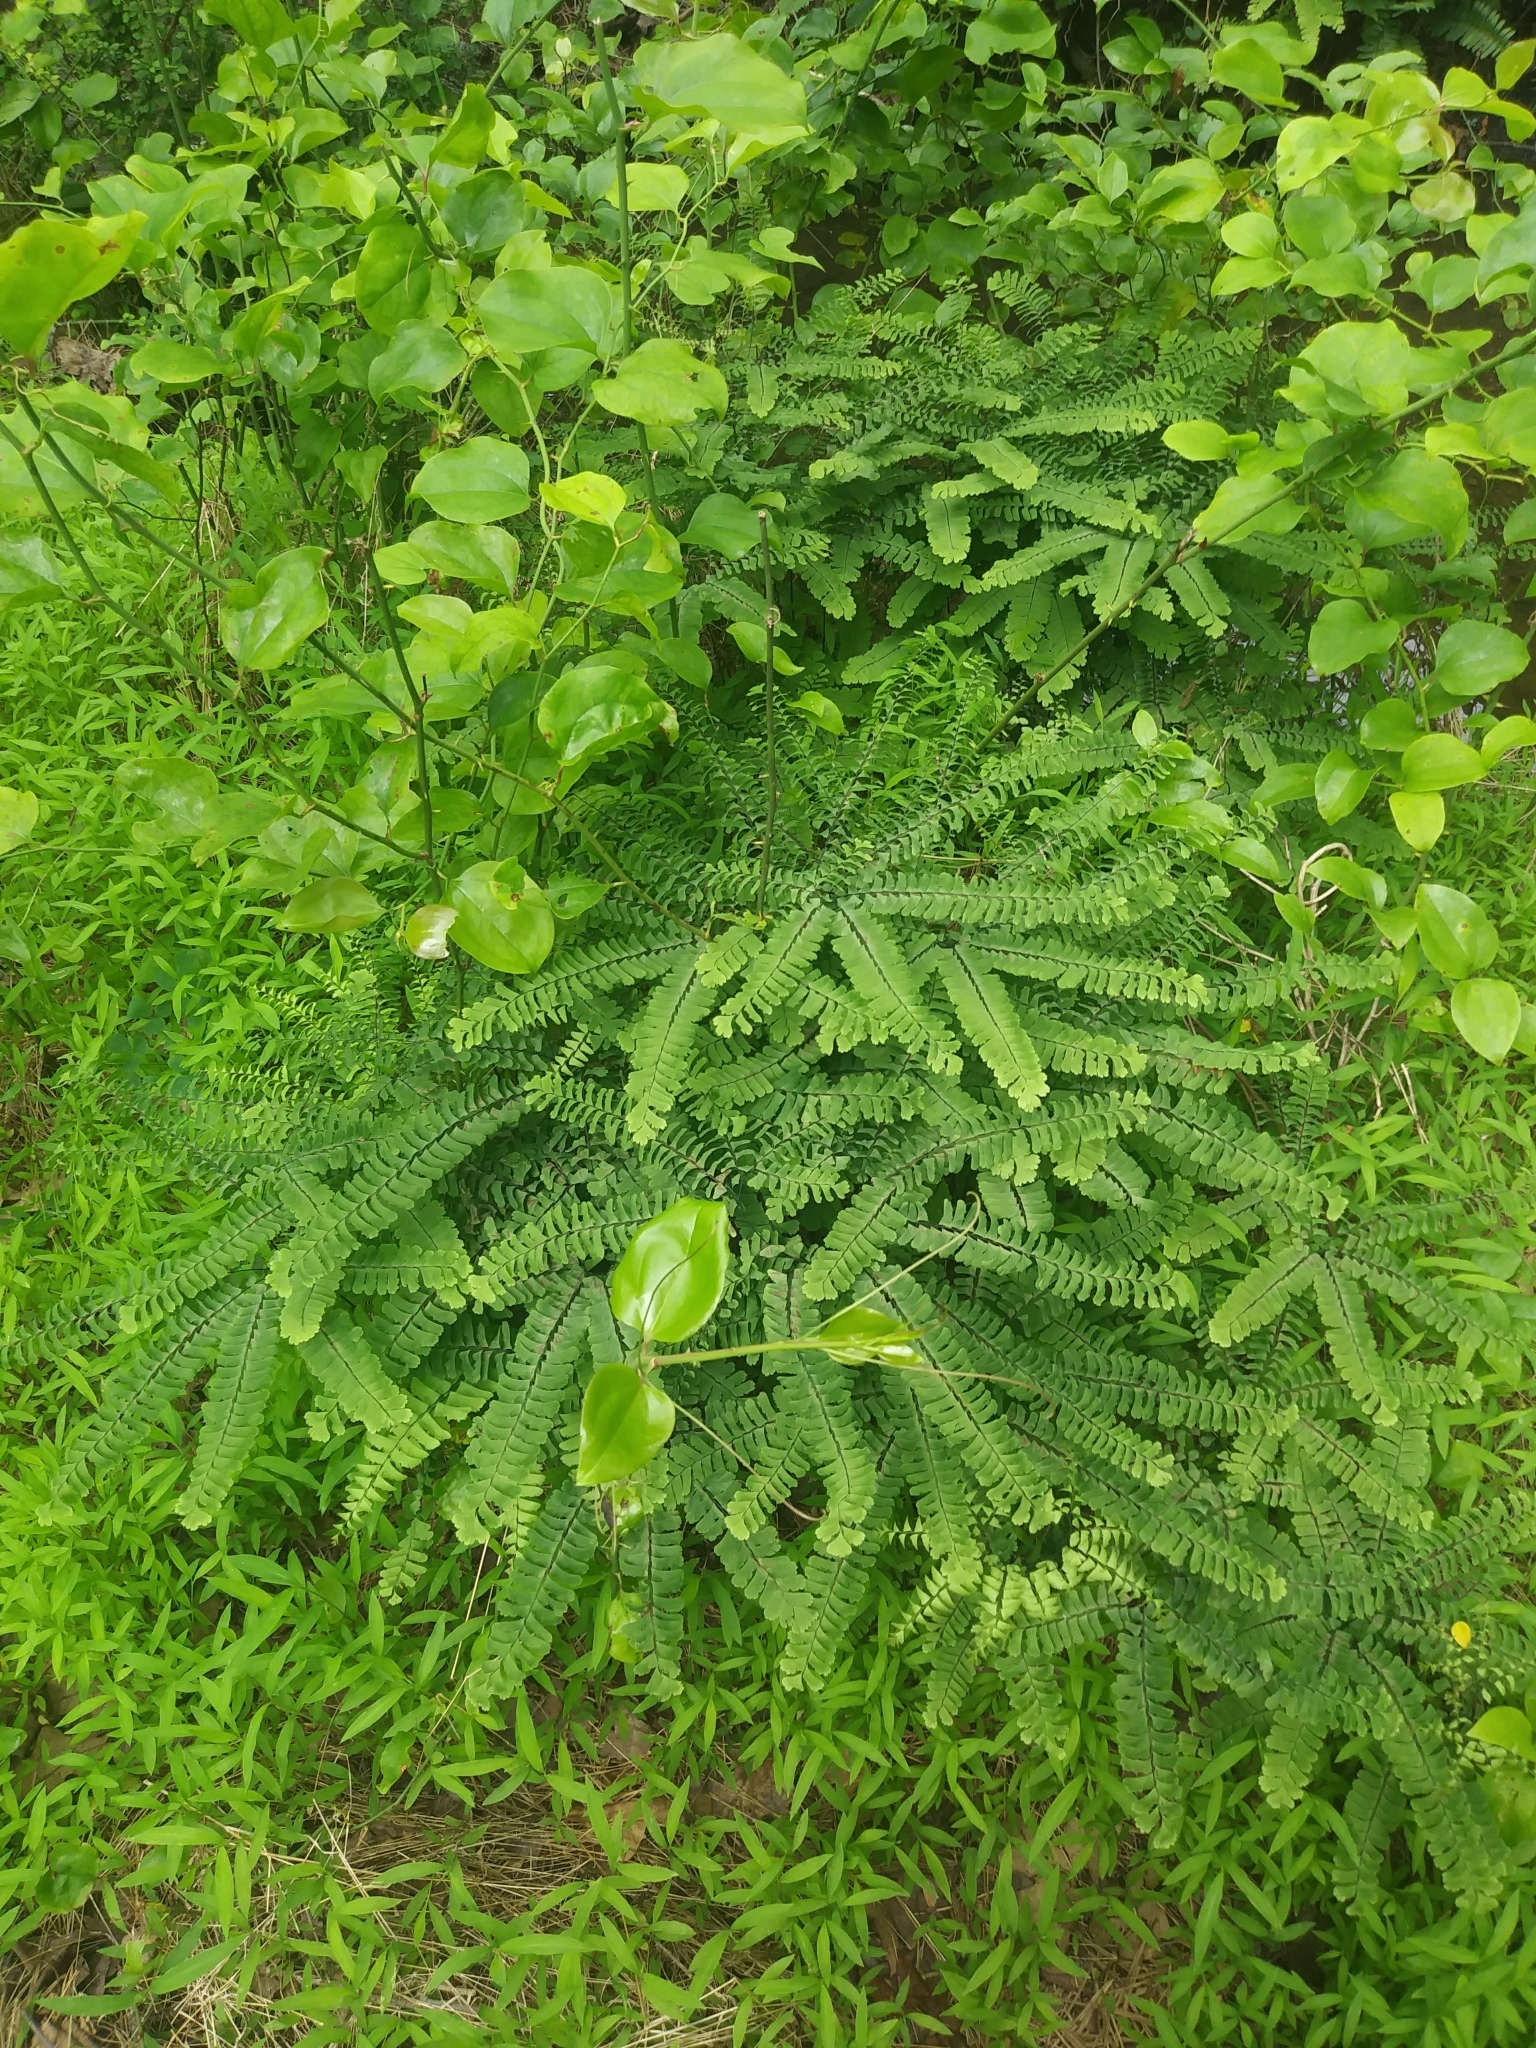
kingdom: Plantae
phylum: Tracheophyta
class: Polypodiopsida
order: Polypodiales
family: Pteridaceae
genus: Adiantum
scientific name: Adiantum pedatum
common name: Five-finger fern
